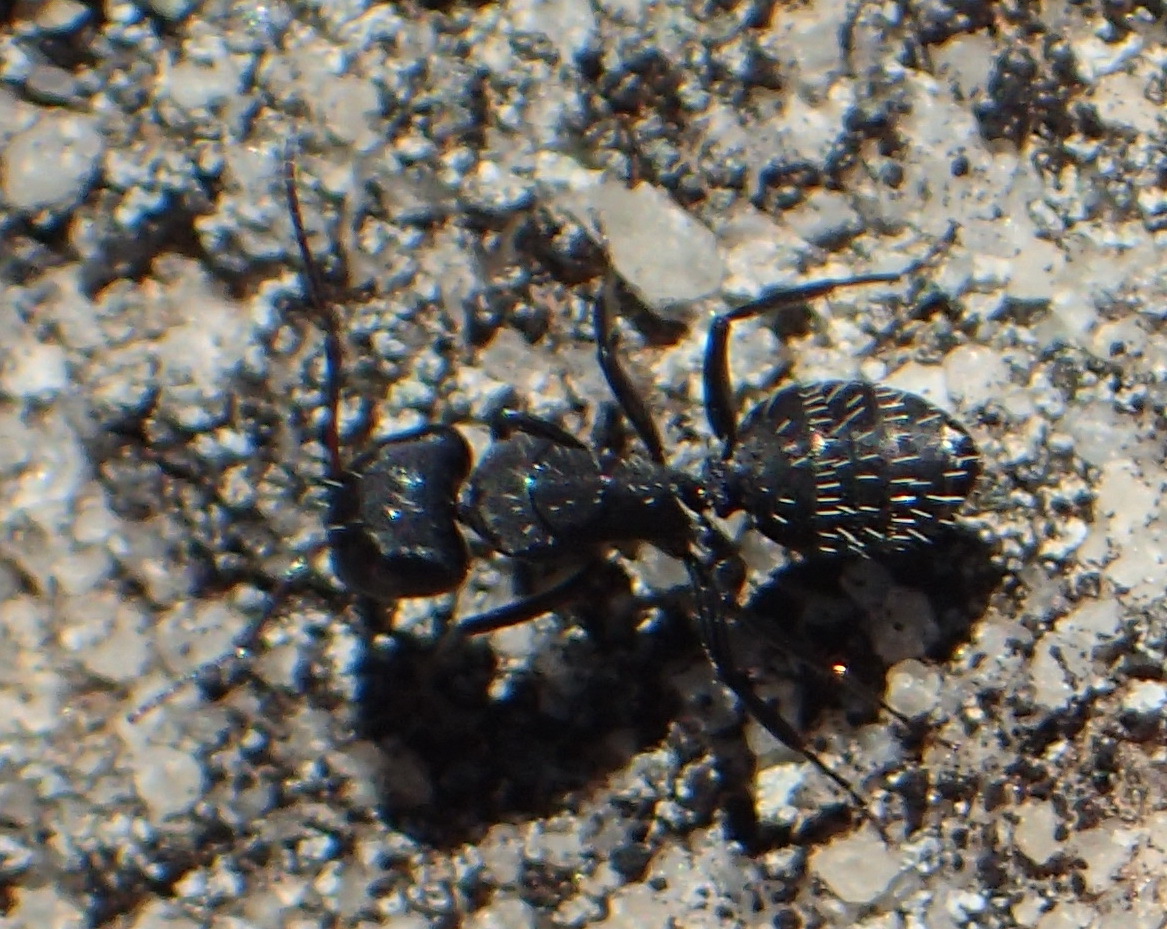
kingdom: Animalia
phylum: Arthropoda
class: Insecta
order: Hymenoptera
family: Formicidae
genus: Camponotus
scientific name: Camponotus niveosetosus
